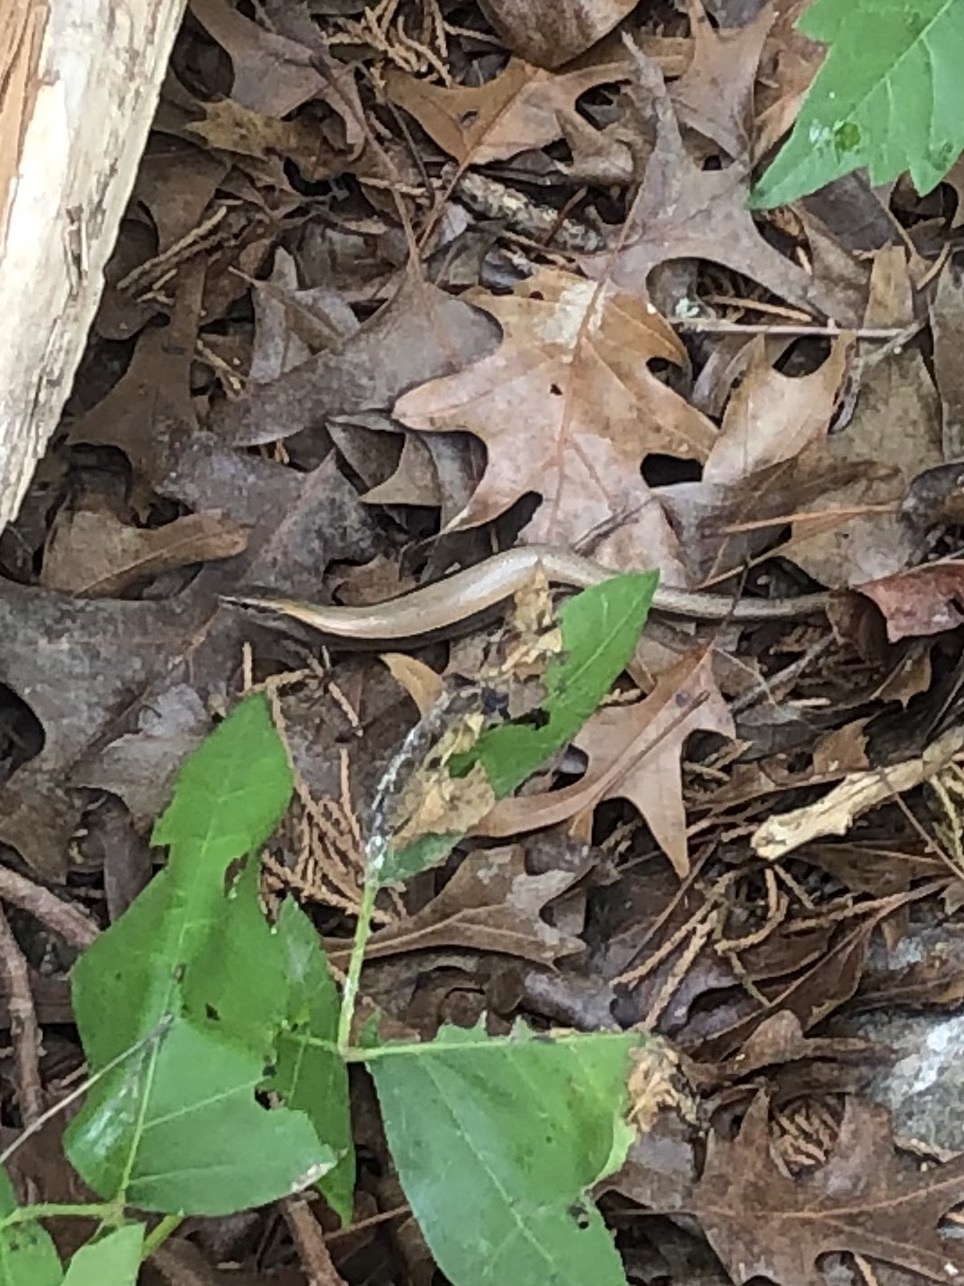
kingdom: Animalia
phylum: Chordata
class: Squamata
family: Scincidae
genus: Scincella
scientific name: Scincella lateralis
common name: Ground skink
